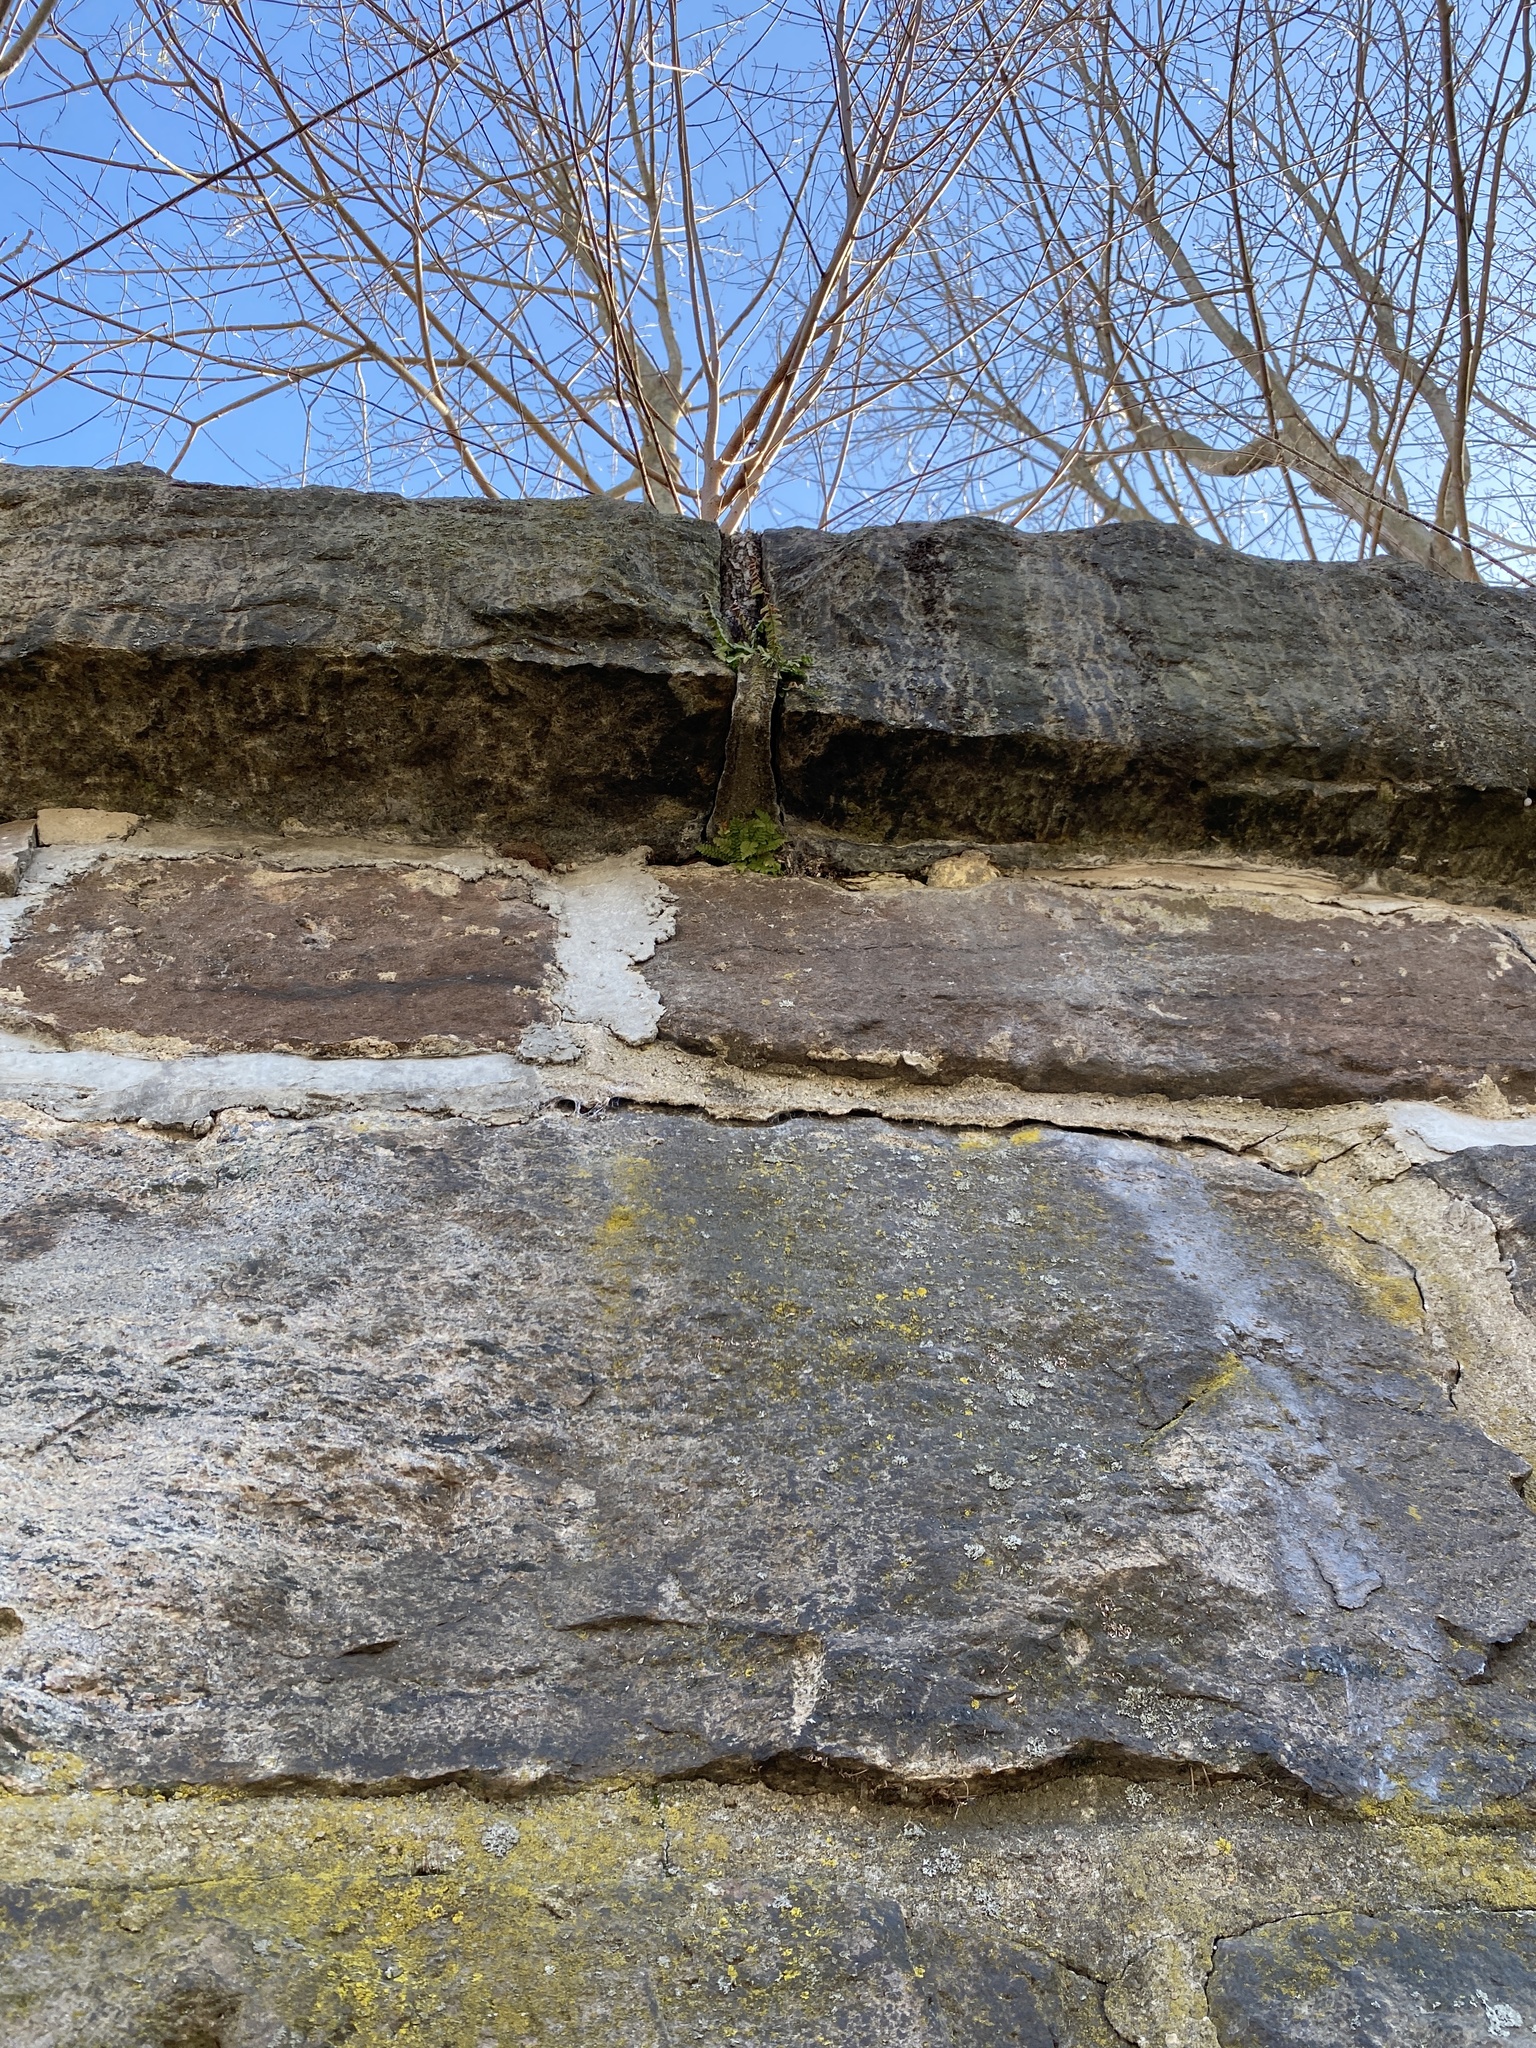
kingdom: Plantae
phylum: Tracheophyta
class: Polypodiopsida
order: Polypodiales
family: Aspleniaceae
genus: Asplenium
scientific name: Asplenium platyneuron
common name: Ebony spleenwort
